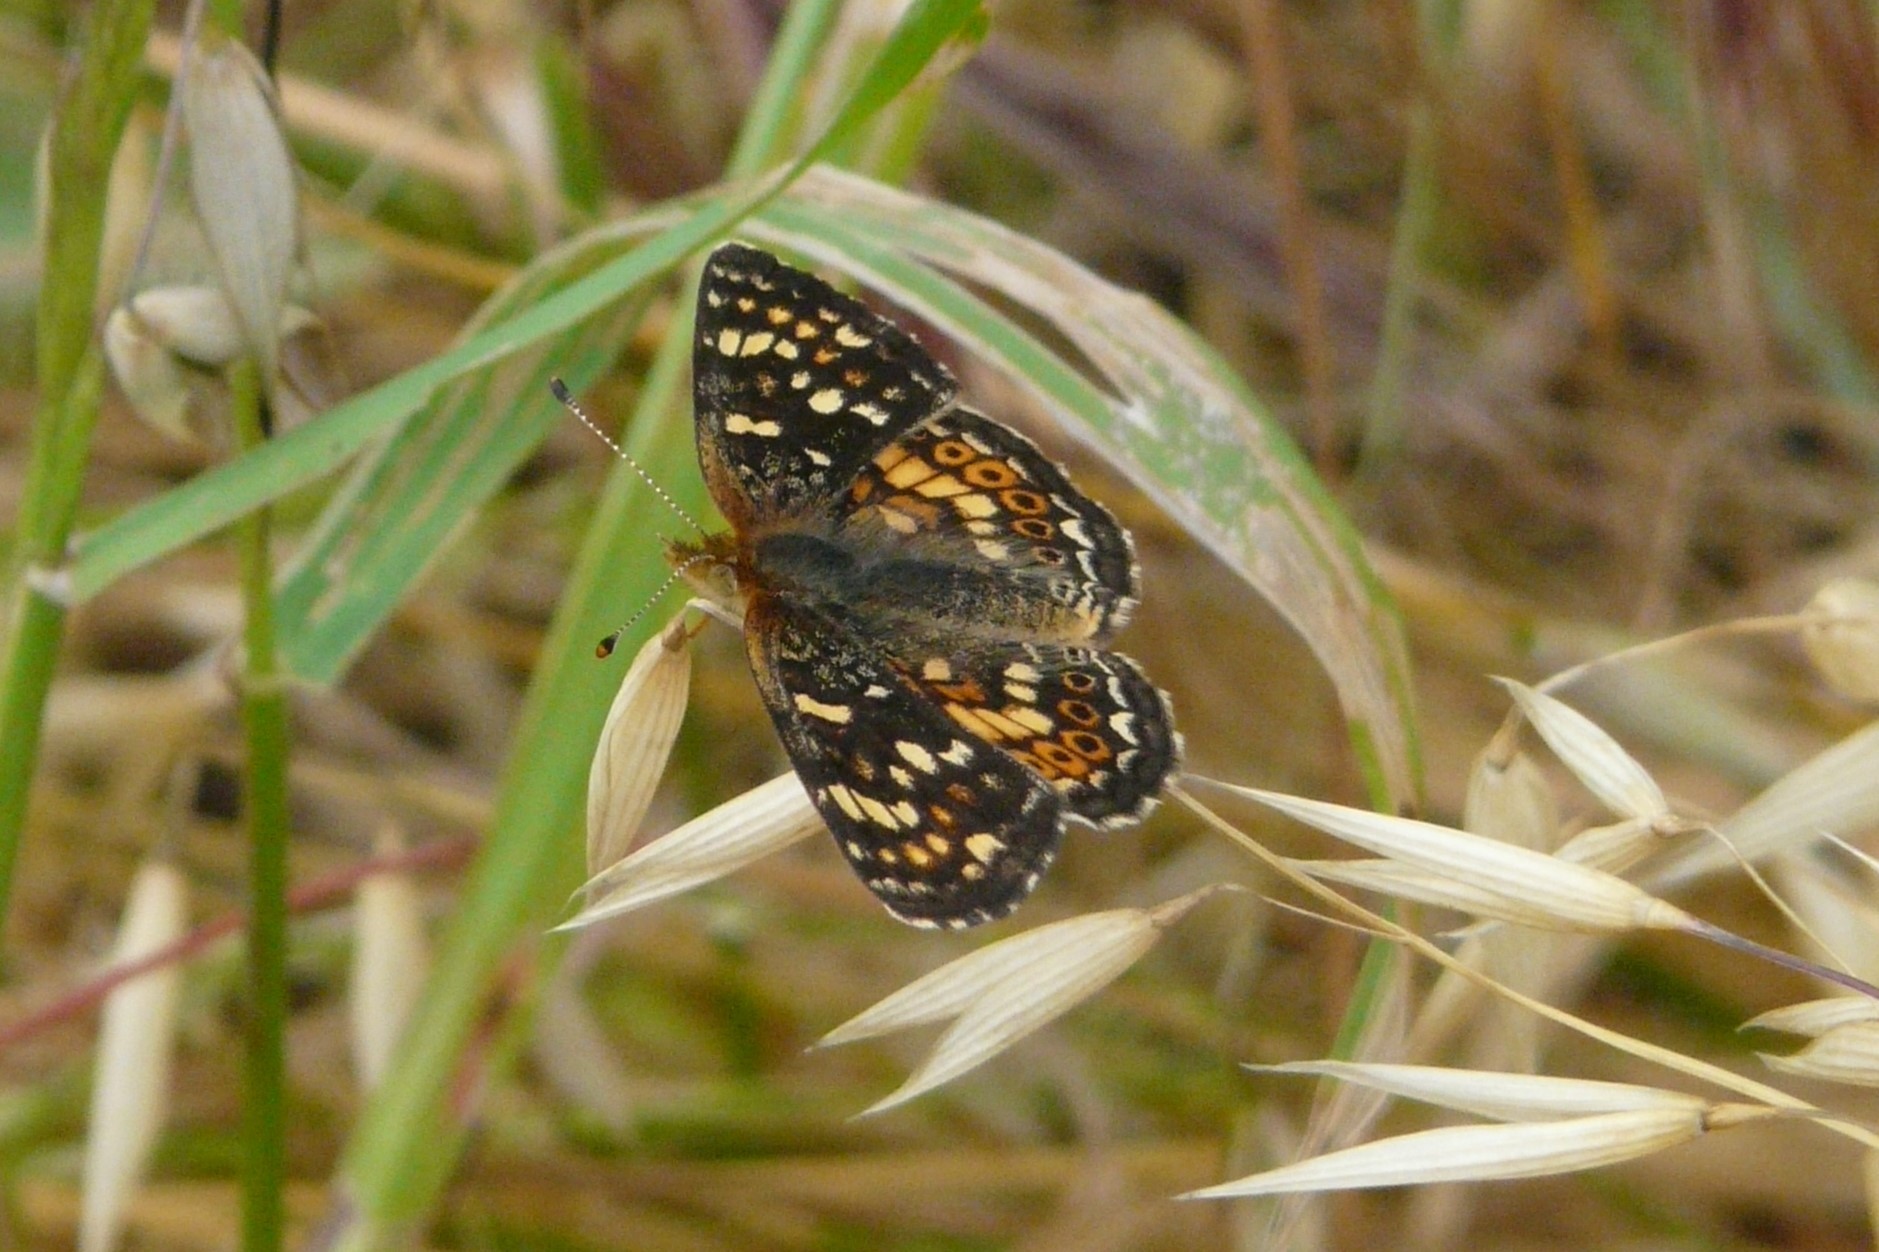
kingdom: Animalia
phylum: Arthropoda
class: Insecta
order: Lepidoptera
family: Nymphalidae
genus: Phyciodes
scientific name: Phyciodes tharos
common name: Pearl crescent
